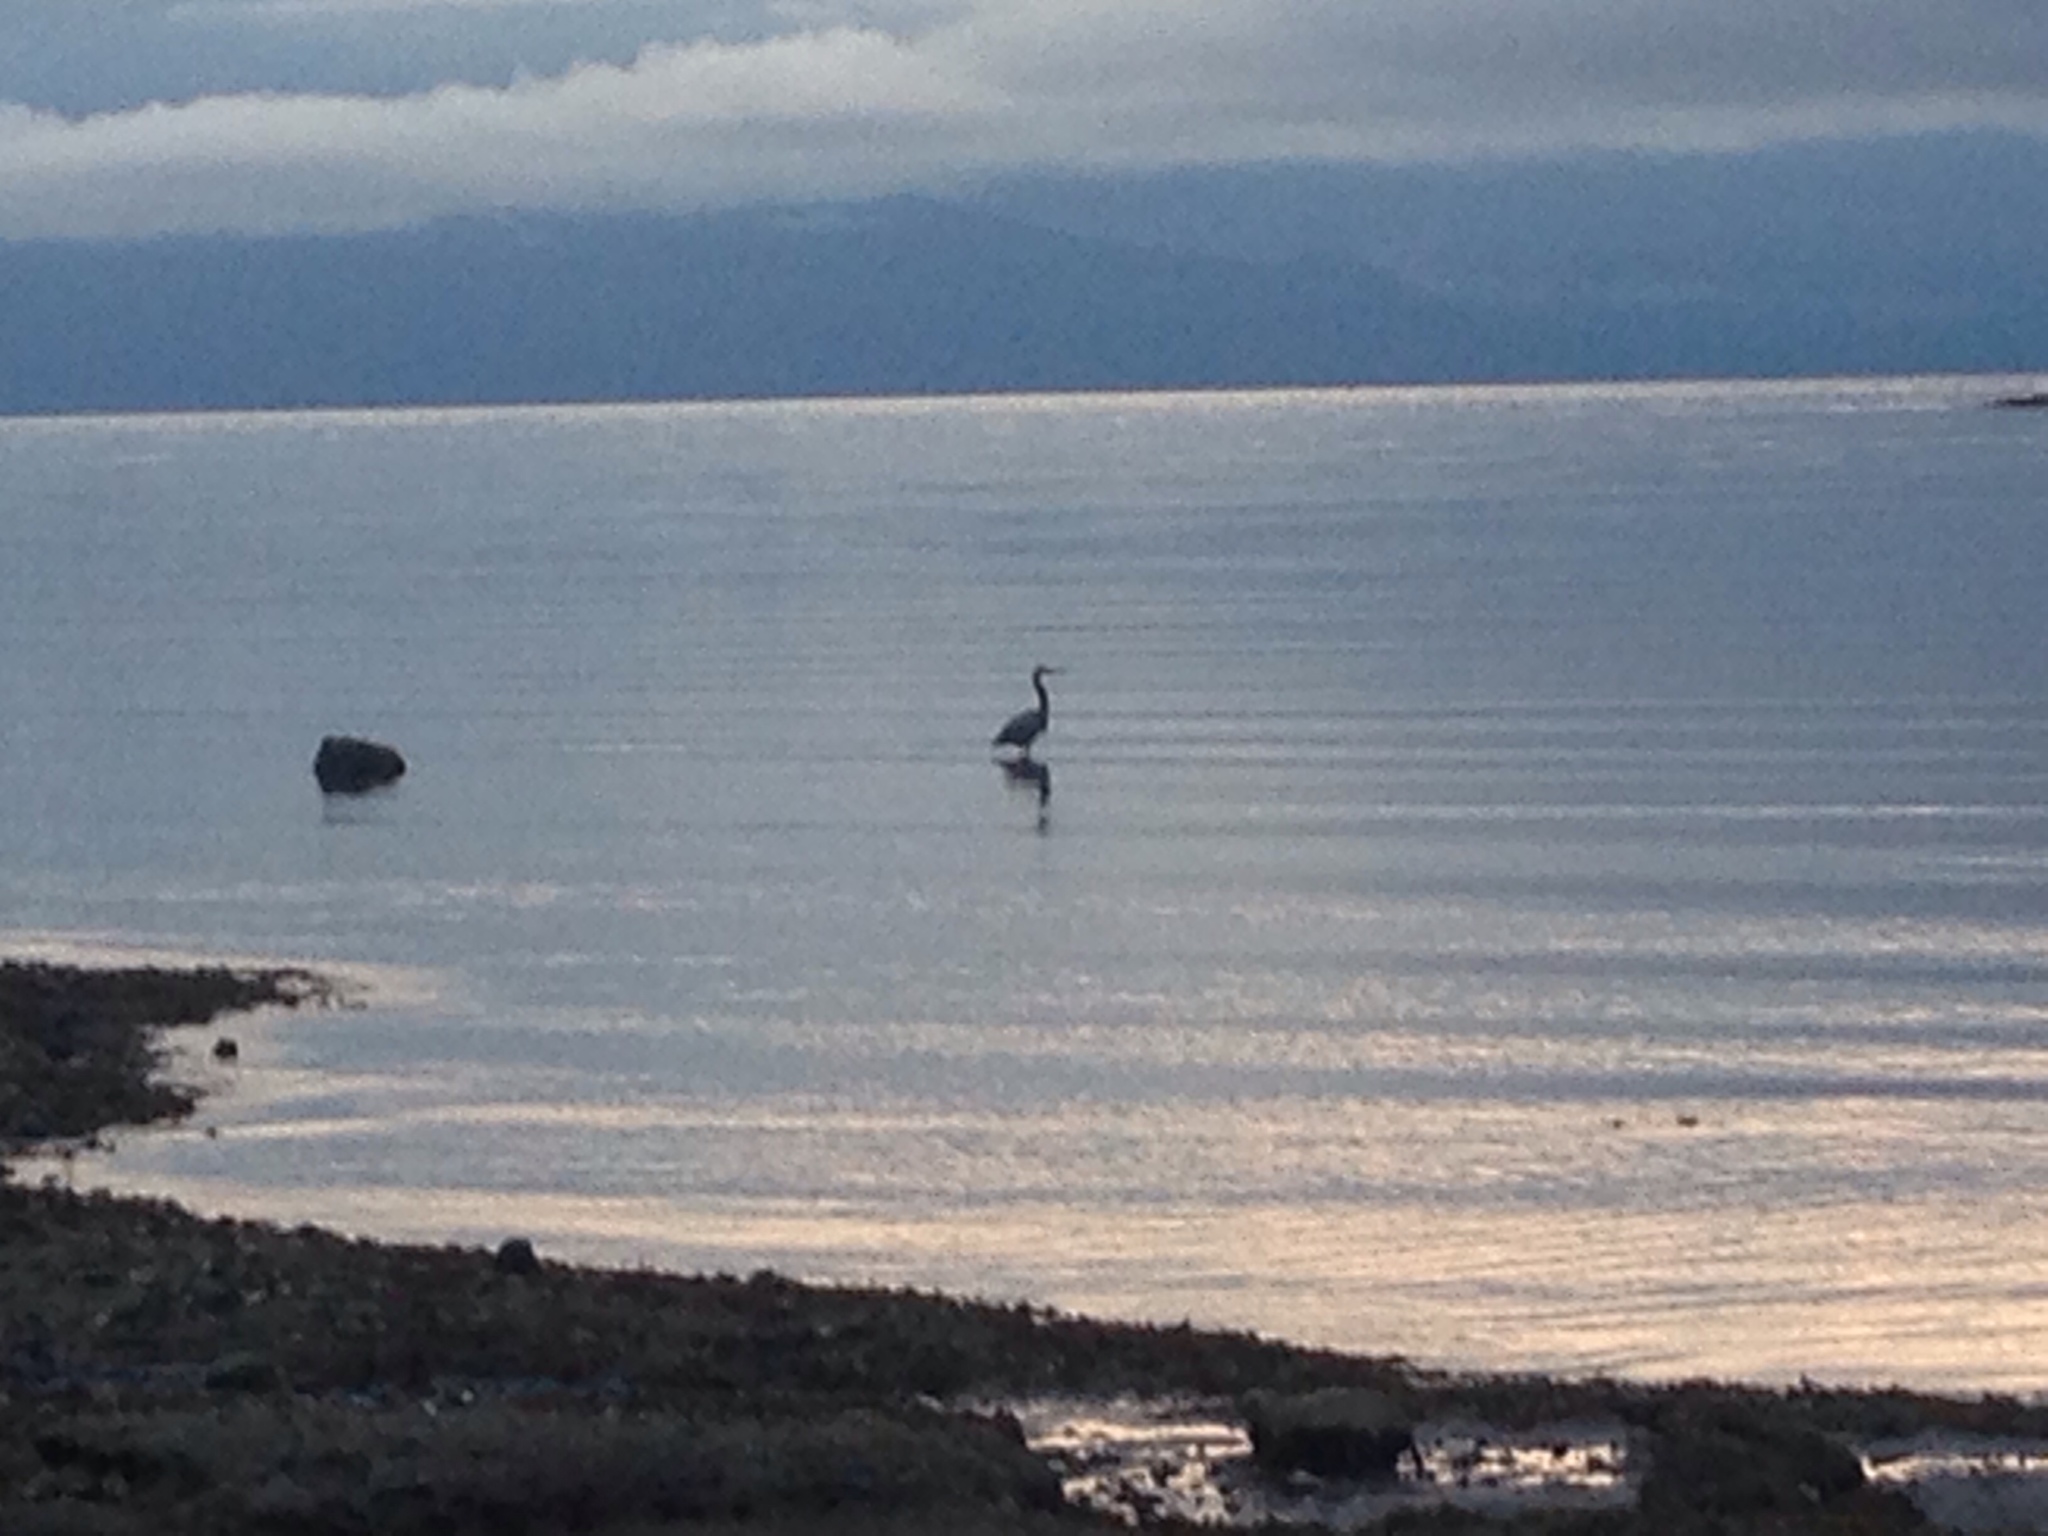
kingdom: Animalia
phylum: Chordata
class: Aves
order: Pelecaniformes
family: Ardeidae
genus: Ardea
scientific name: Ardea herodias
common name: Great blue heron
